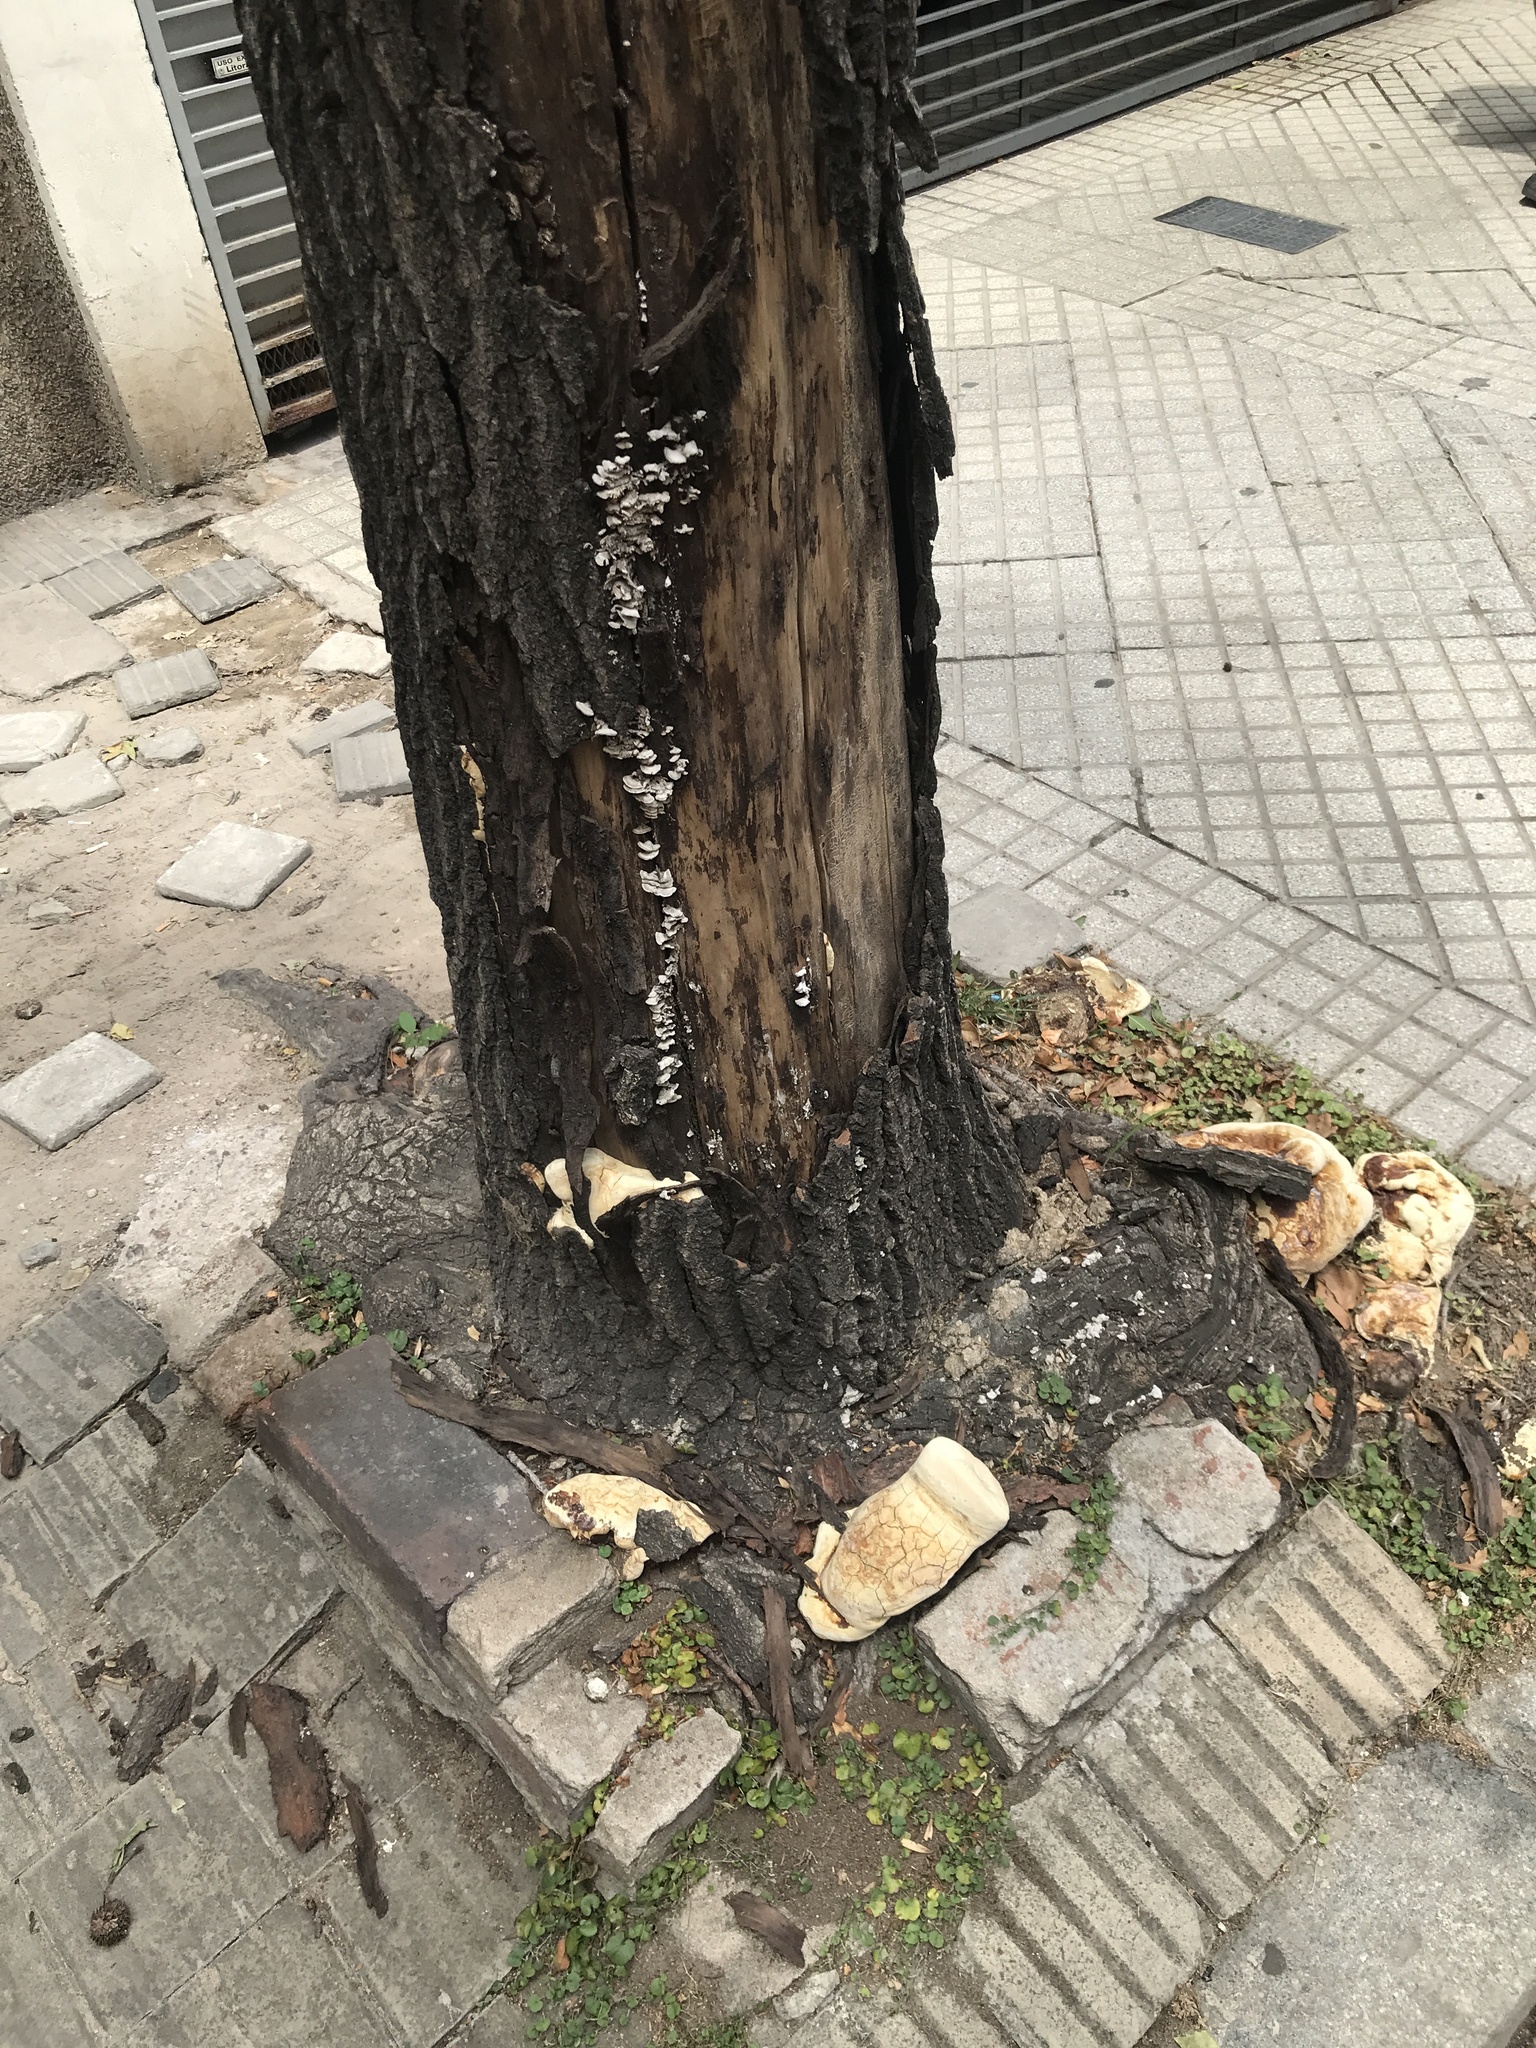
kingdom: Fungi
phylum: Basidiomycota
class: Agaricomycetes
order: Agaricales
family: Schizophyllaceae
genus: Schizophyllum
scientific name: Schizophyllum commune
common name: Common porecrust
